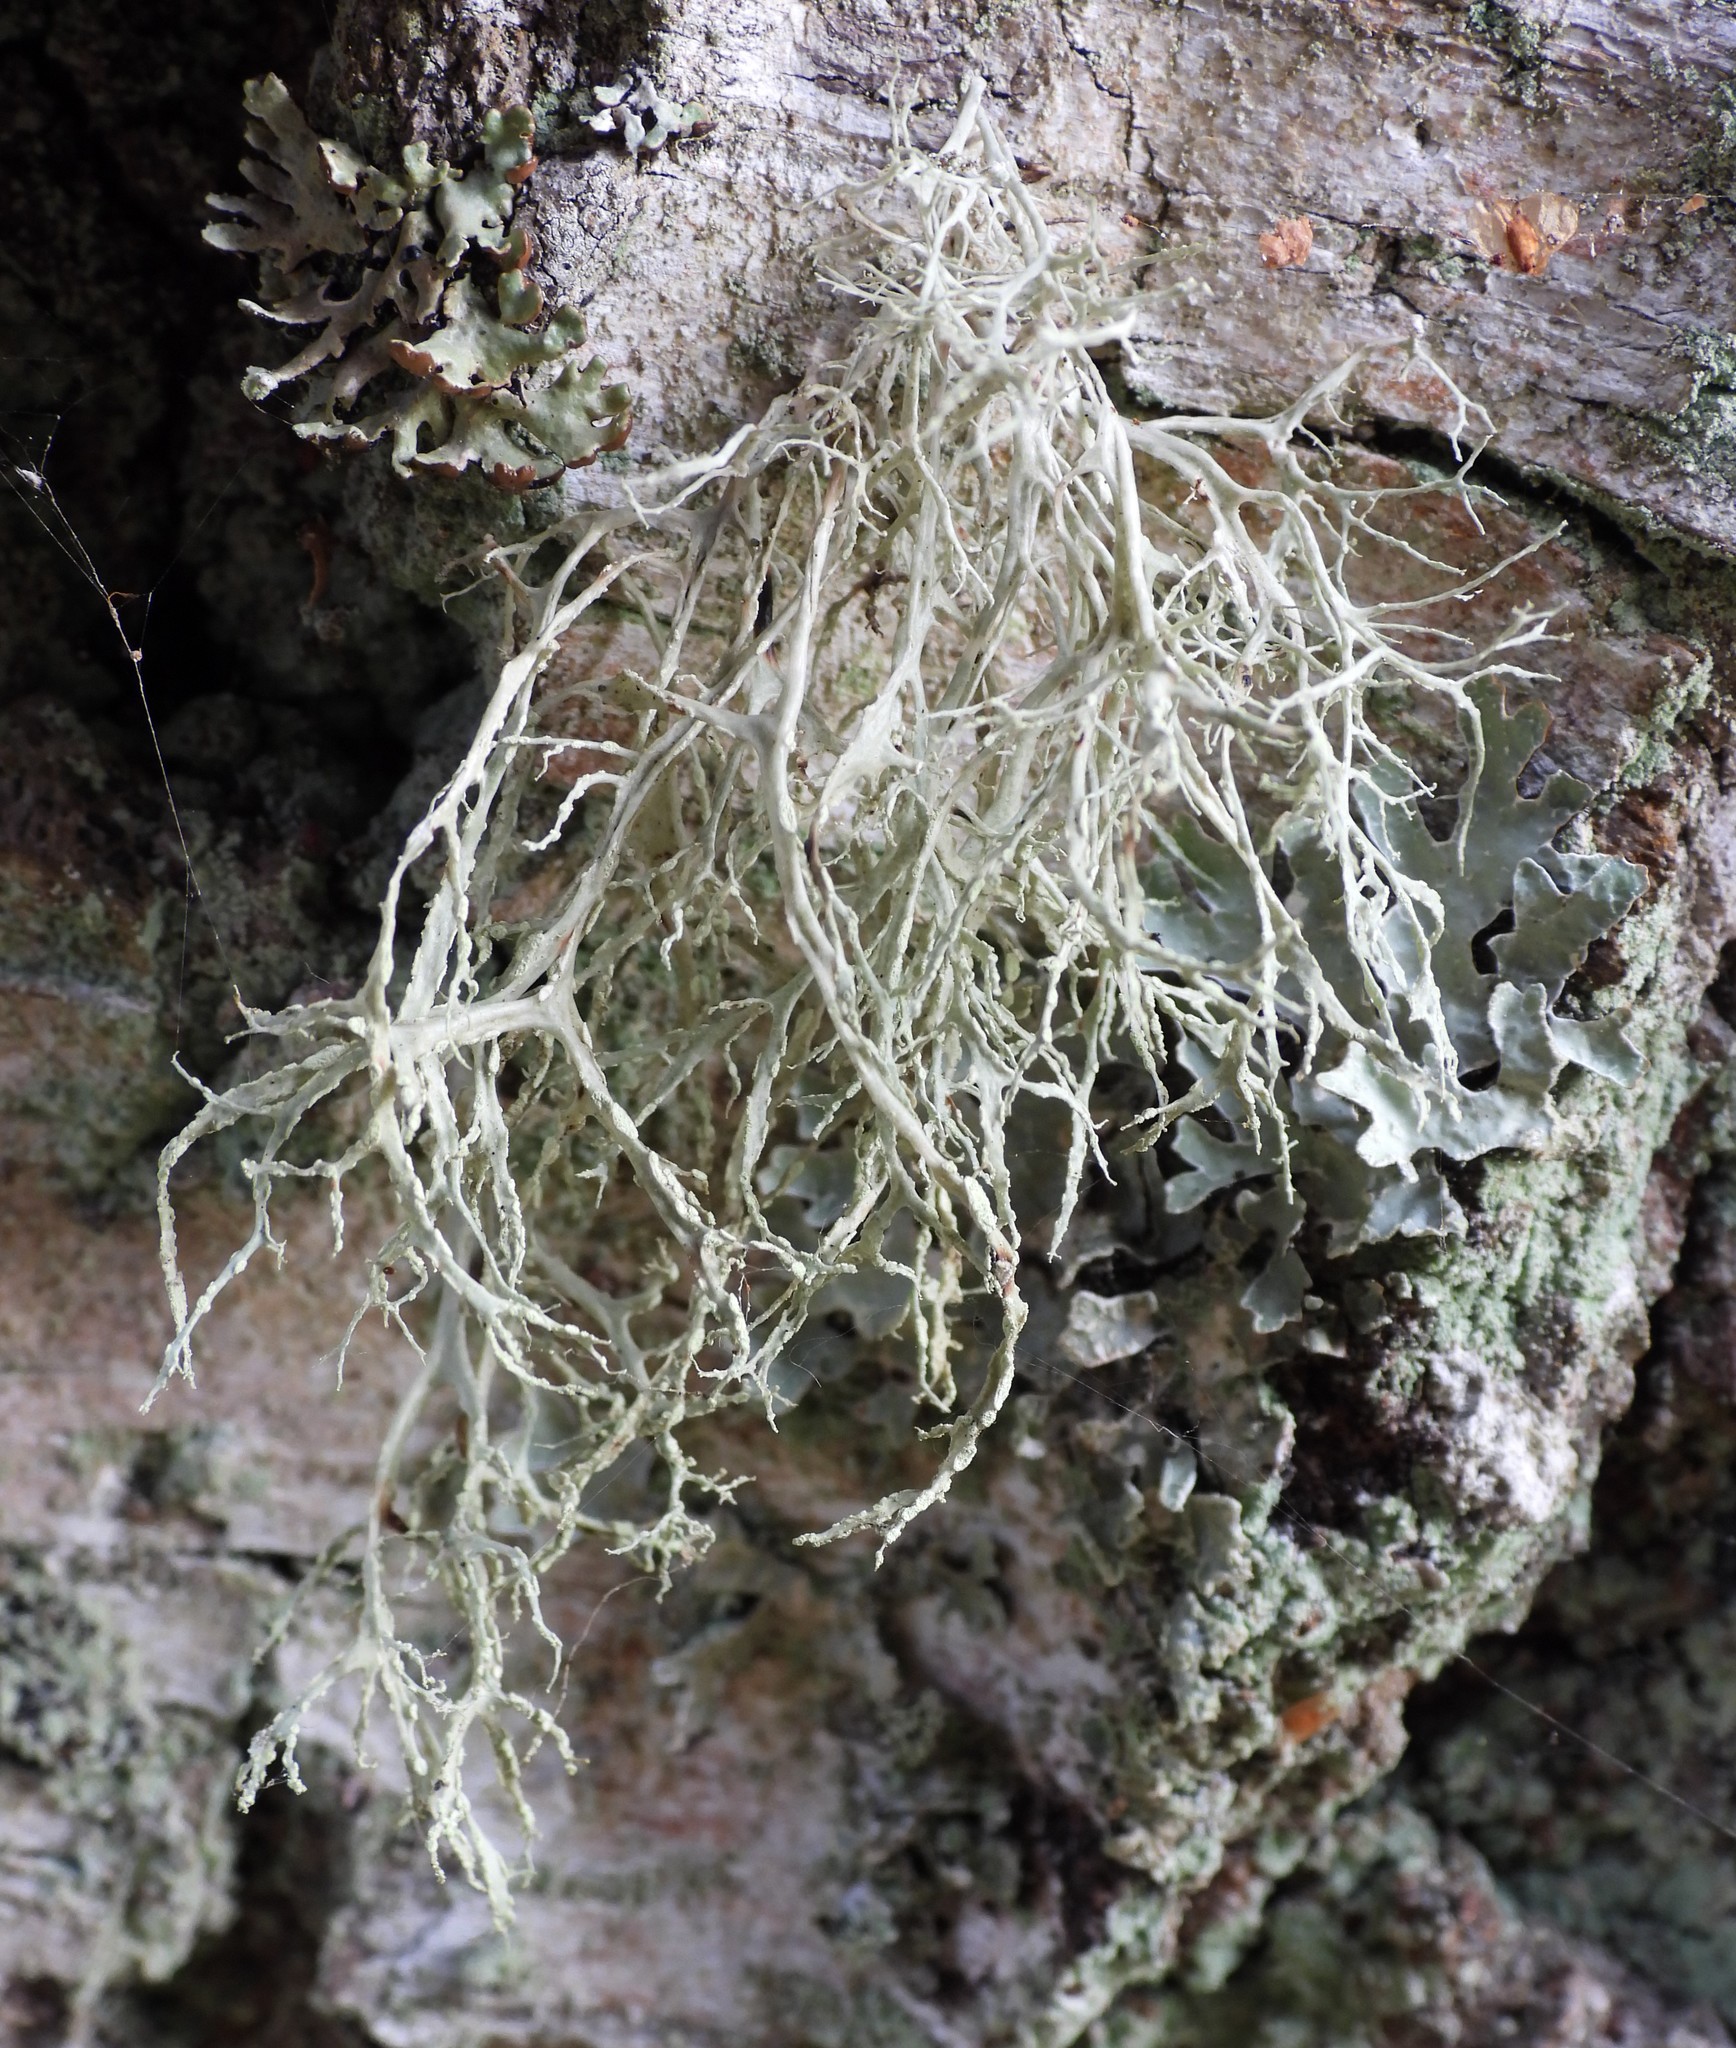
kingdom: Fungi
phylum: Ascomycota
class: Lecanoromycetes
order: Lecanorales
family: Ramalinaceae
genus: Ramalina
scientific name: Ramalina farinacea
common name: Farinose cartilage lichen
